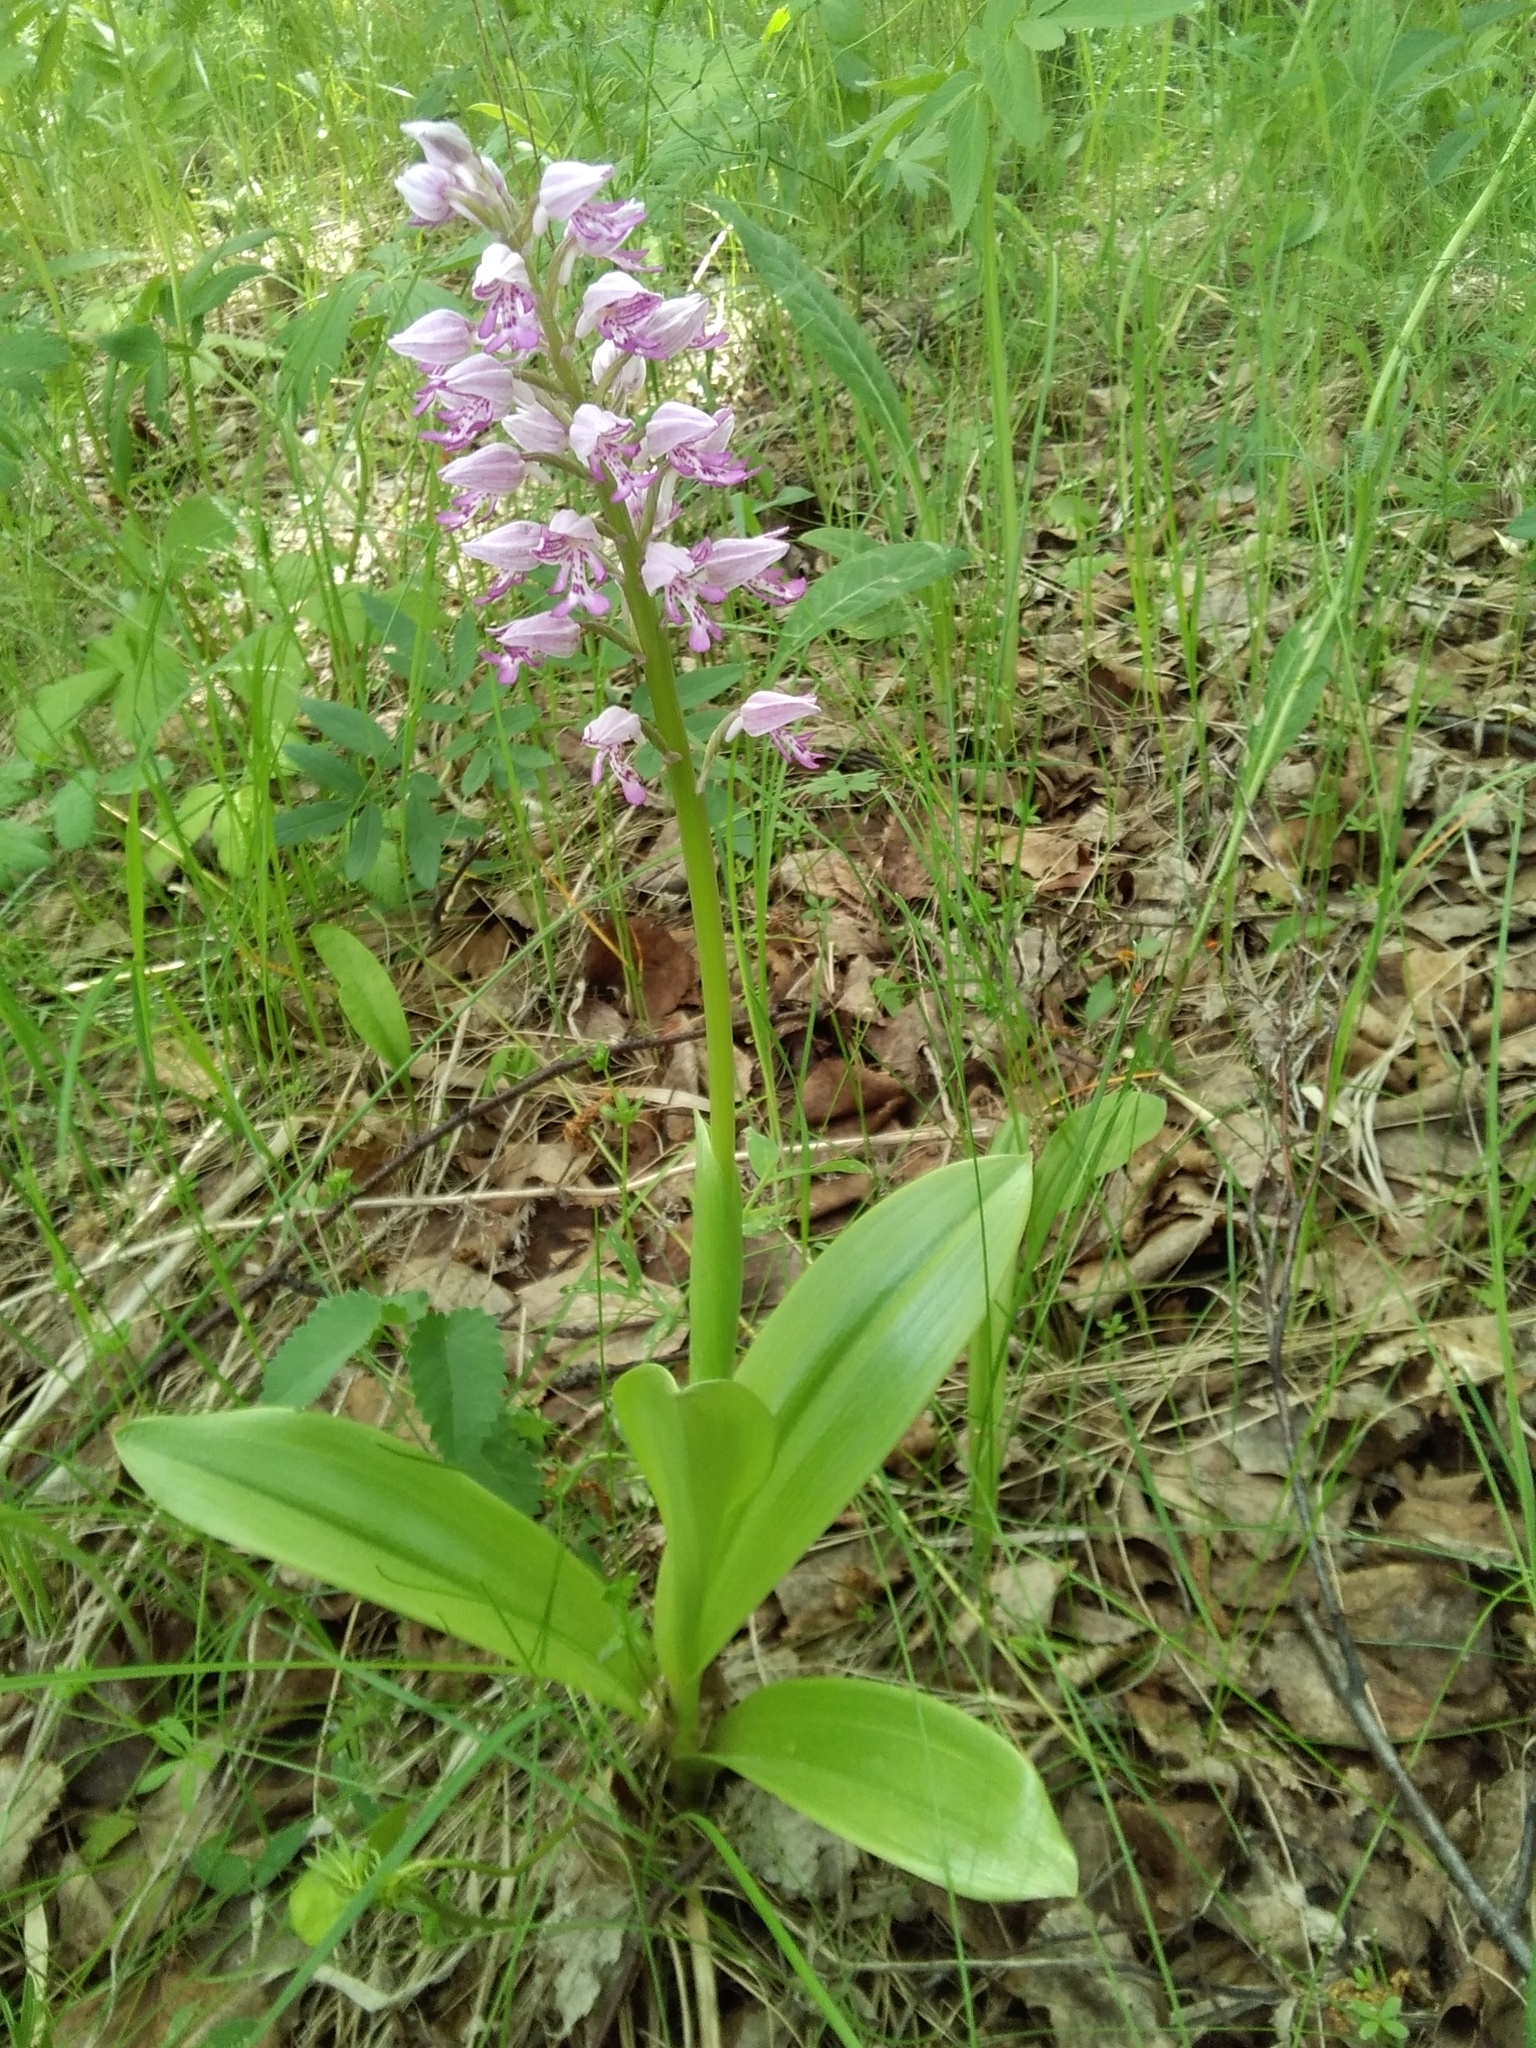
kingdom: Plantae
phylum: Tracheophyta
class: Liliopsida
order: Asparagales
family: Orchidaceae
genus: Orchis
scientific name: Orchis militaris
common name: Military orchid
